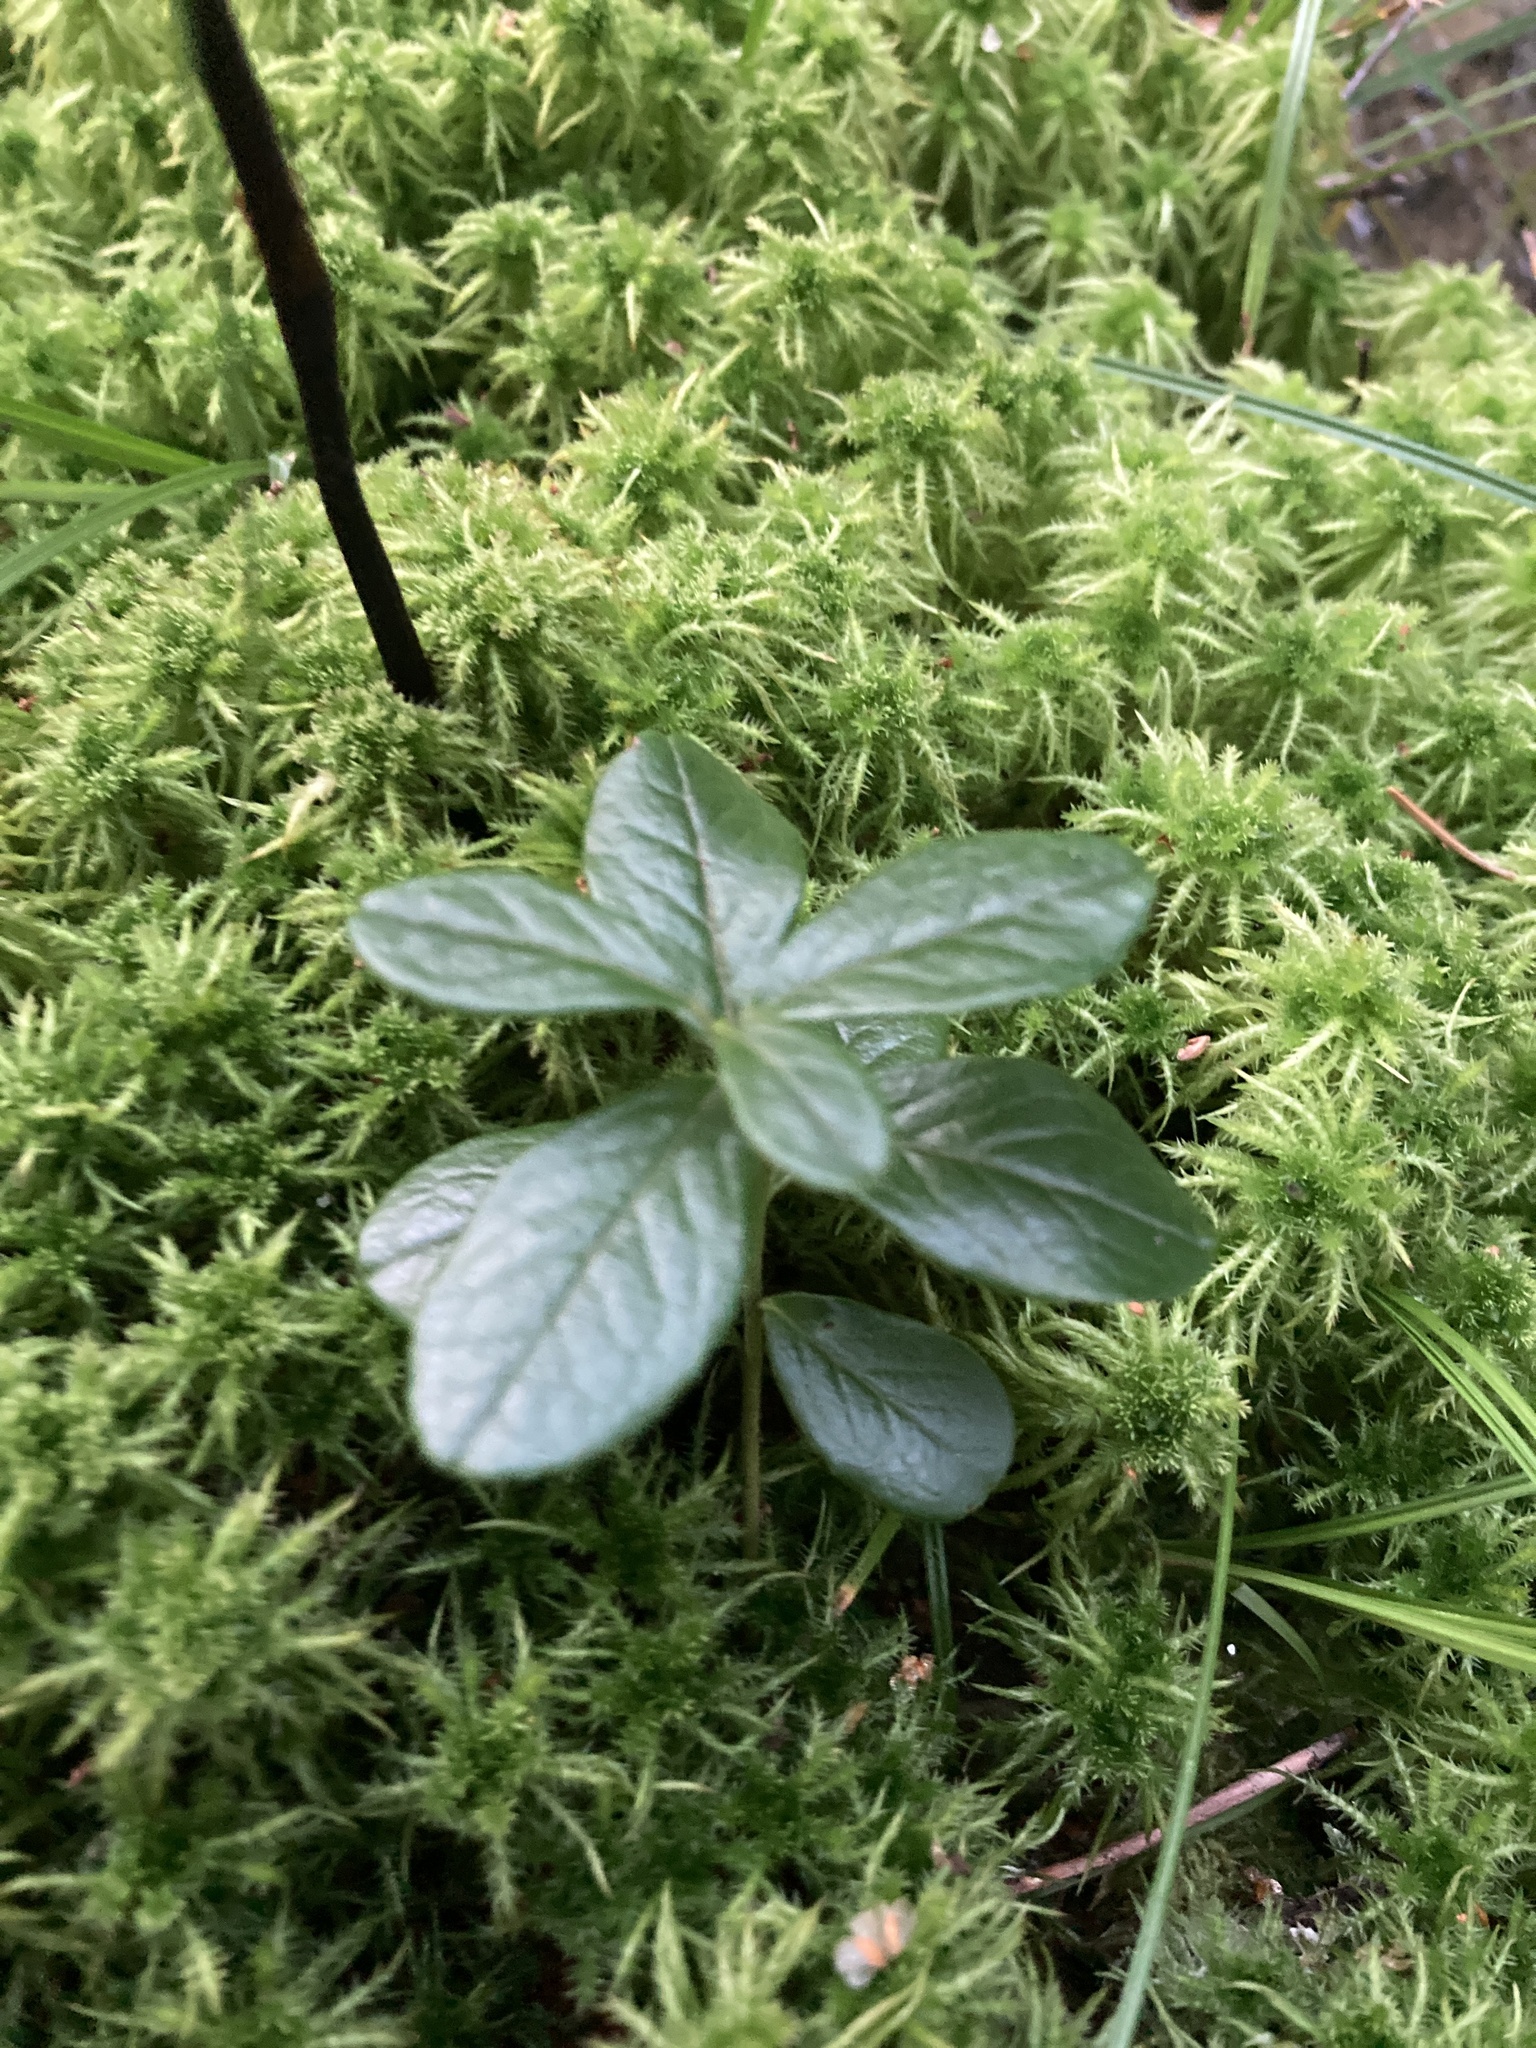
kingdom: Plantae
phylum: Tracheophyta
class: Magnoliopsida
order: Ericales
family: Ericaceae
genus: Vaccinium
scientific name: Vaccinium vitis-idaea
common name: Cowberry
